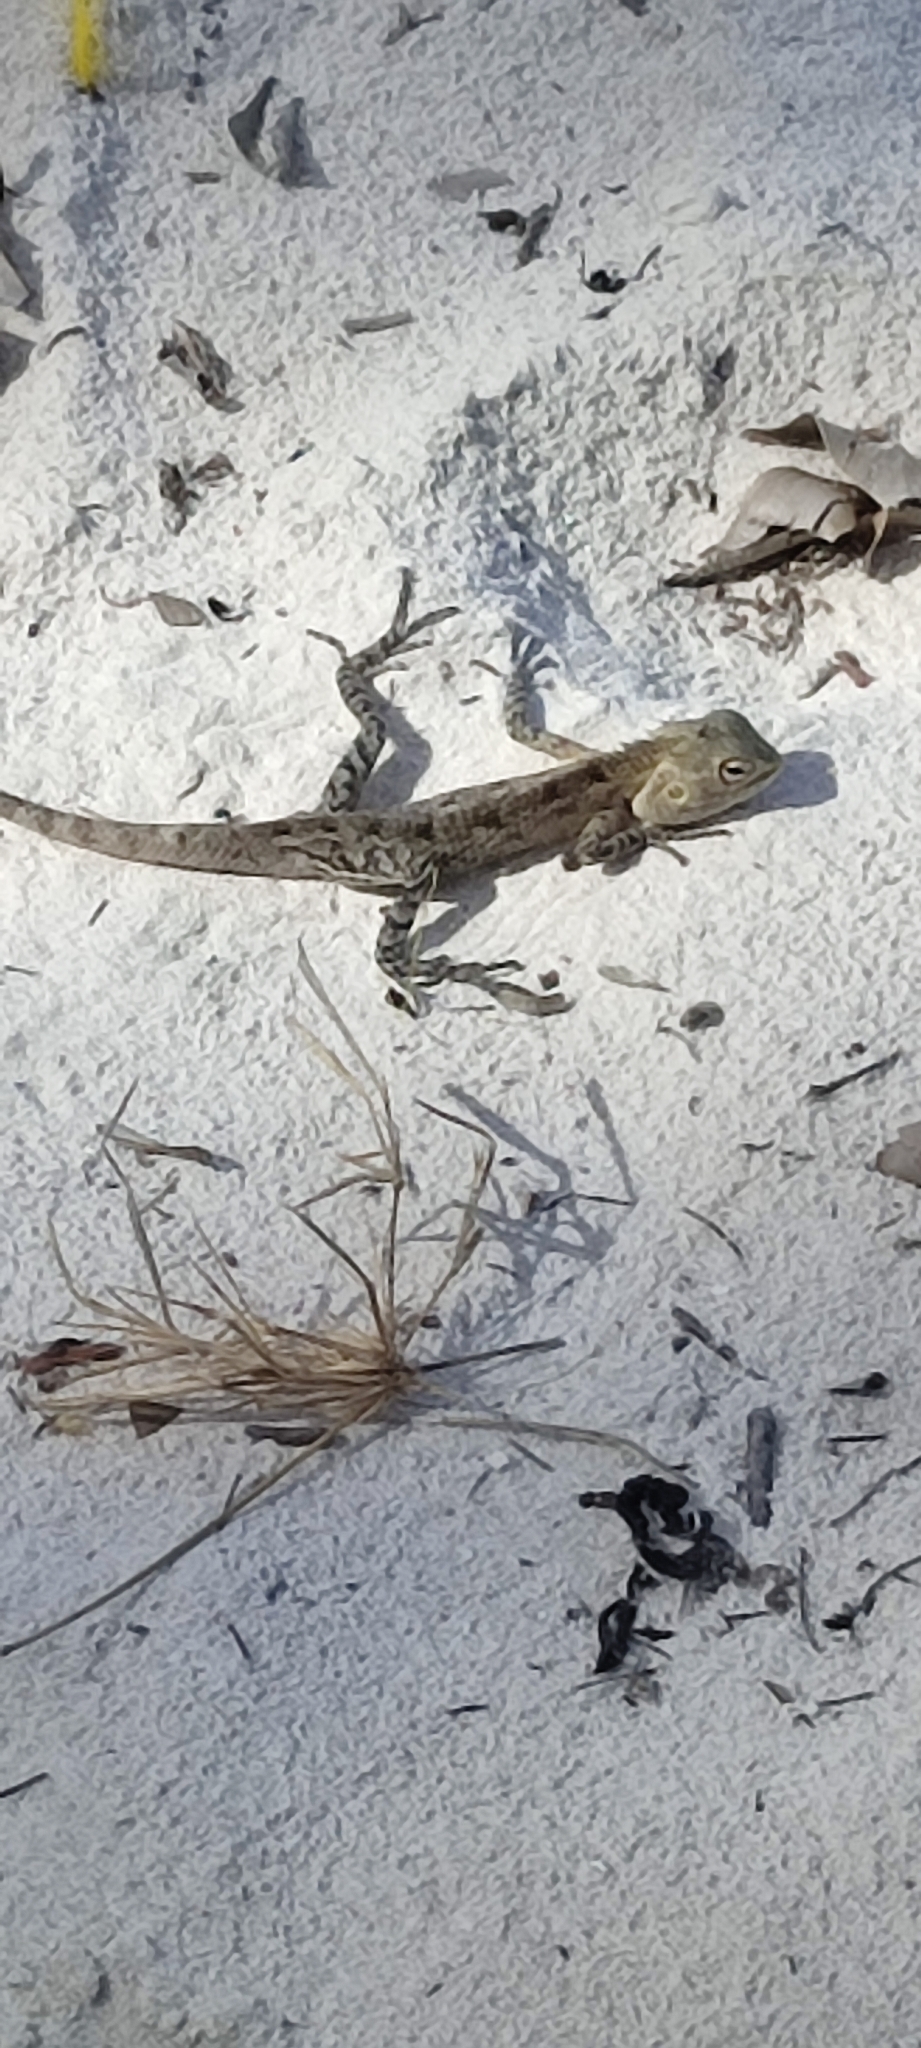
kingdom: Animalia
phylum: Chordata
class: Squamata
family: Agamidae
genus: Calotes
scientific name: Calotes versicolor
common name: Oriental garden lizard
